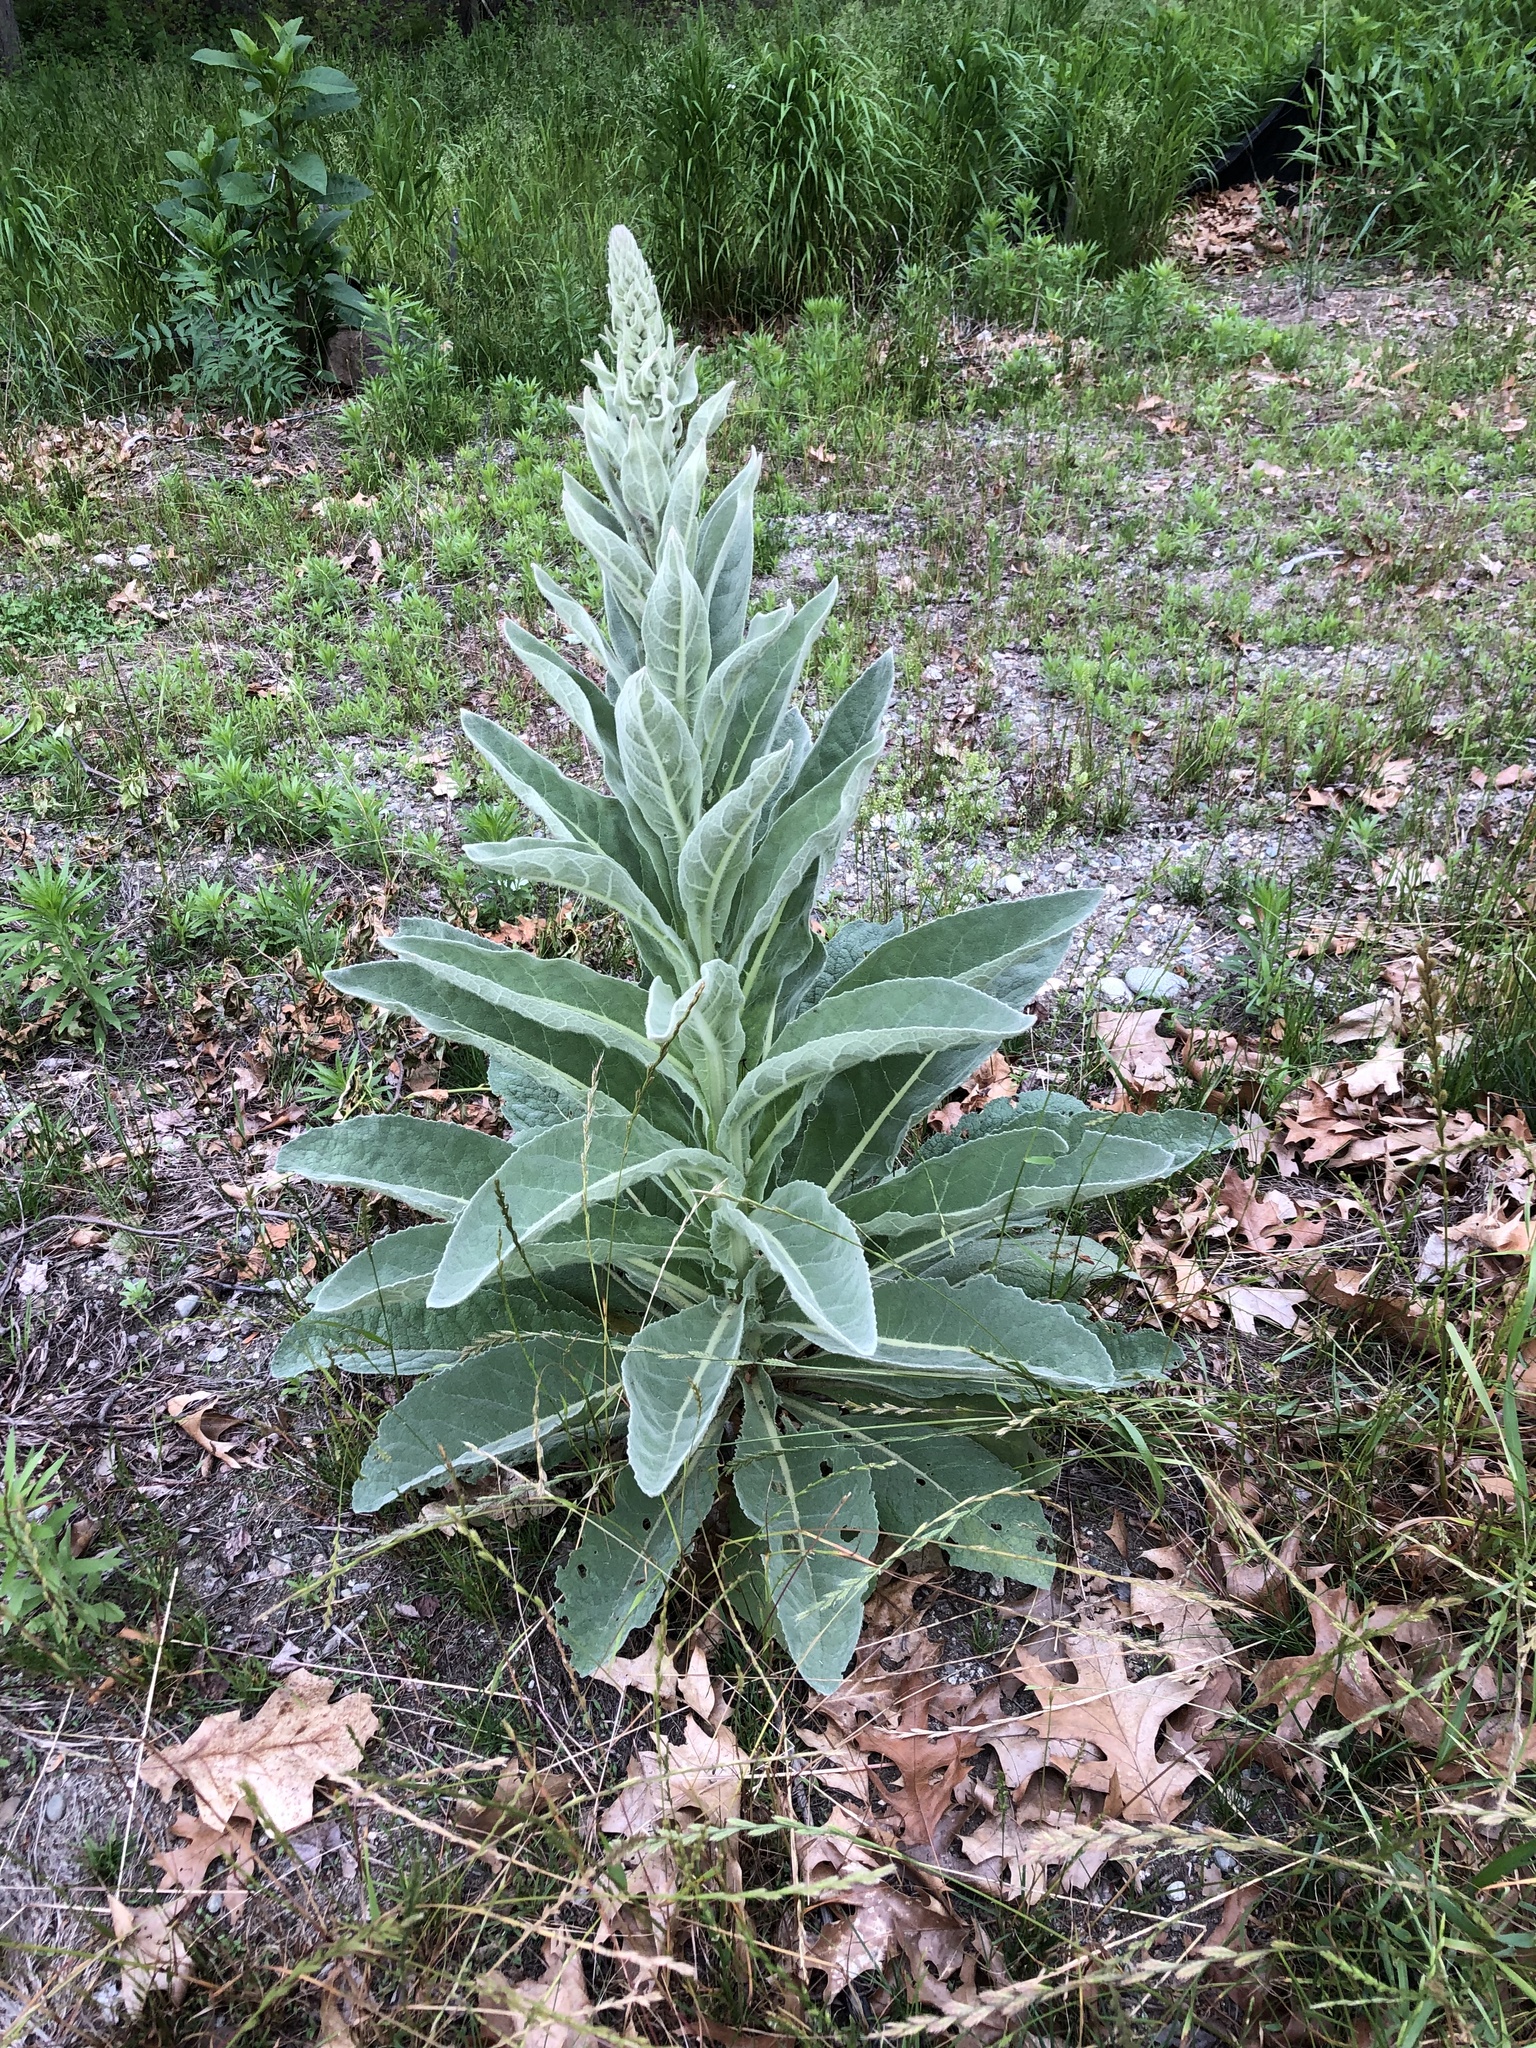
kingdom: Plantae
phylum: Tracheophyta
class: Magnoliopsida
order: Lamiales
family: Scrophulariaceae
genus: Verbascum
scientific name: Verbascum thapsus
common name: Common mullein
